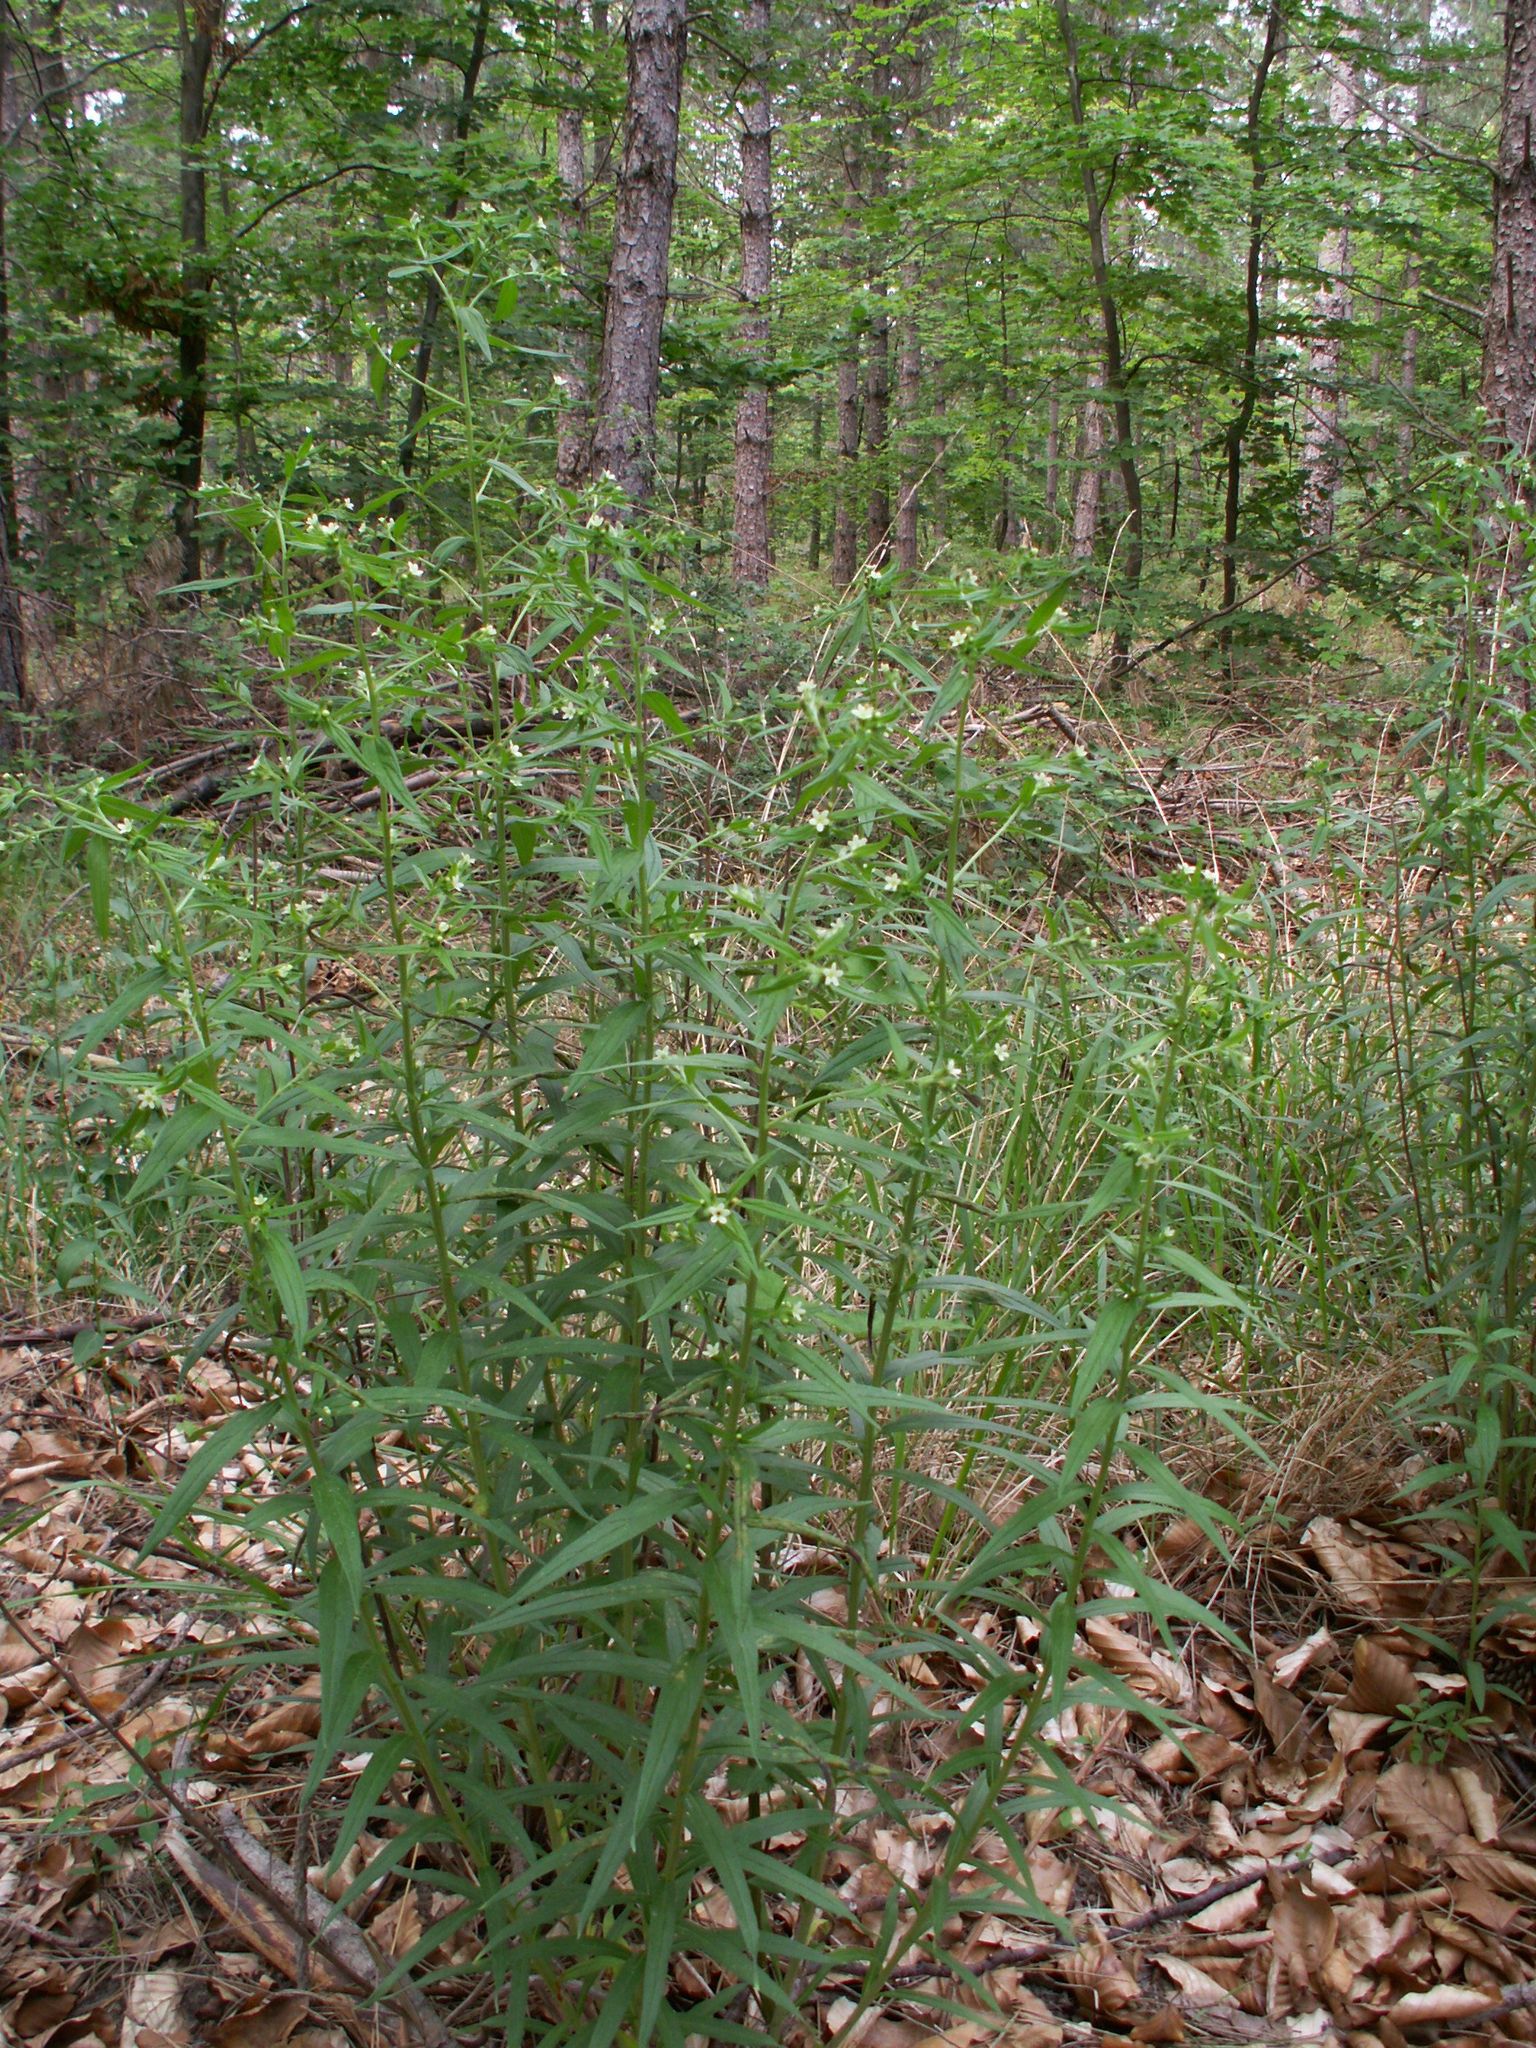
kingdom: Plantae
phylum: Tracheophyta
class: Magnoliopsida
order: Boraginales
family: Boraginaceae
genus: Lithospermum
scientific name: Lithospermum officinale
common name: Common gromwell
